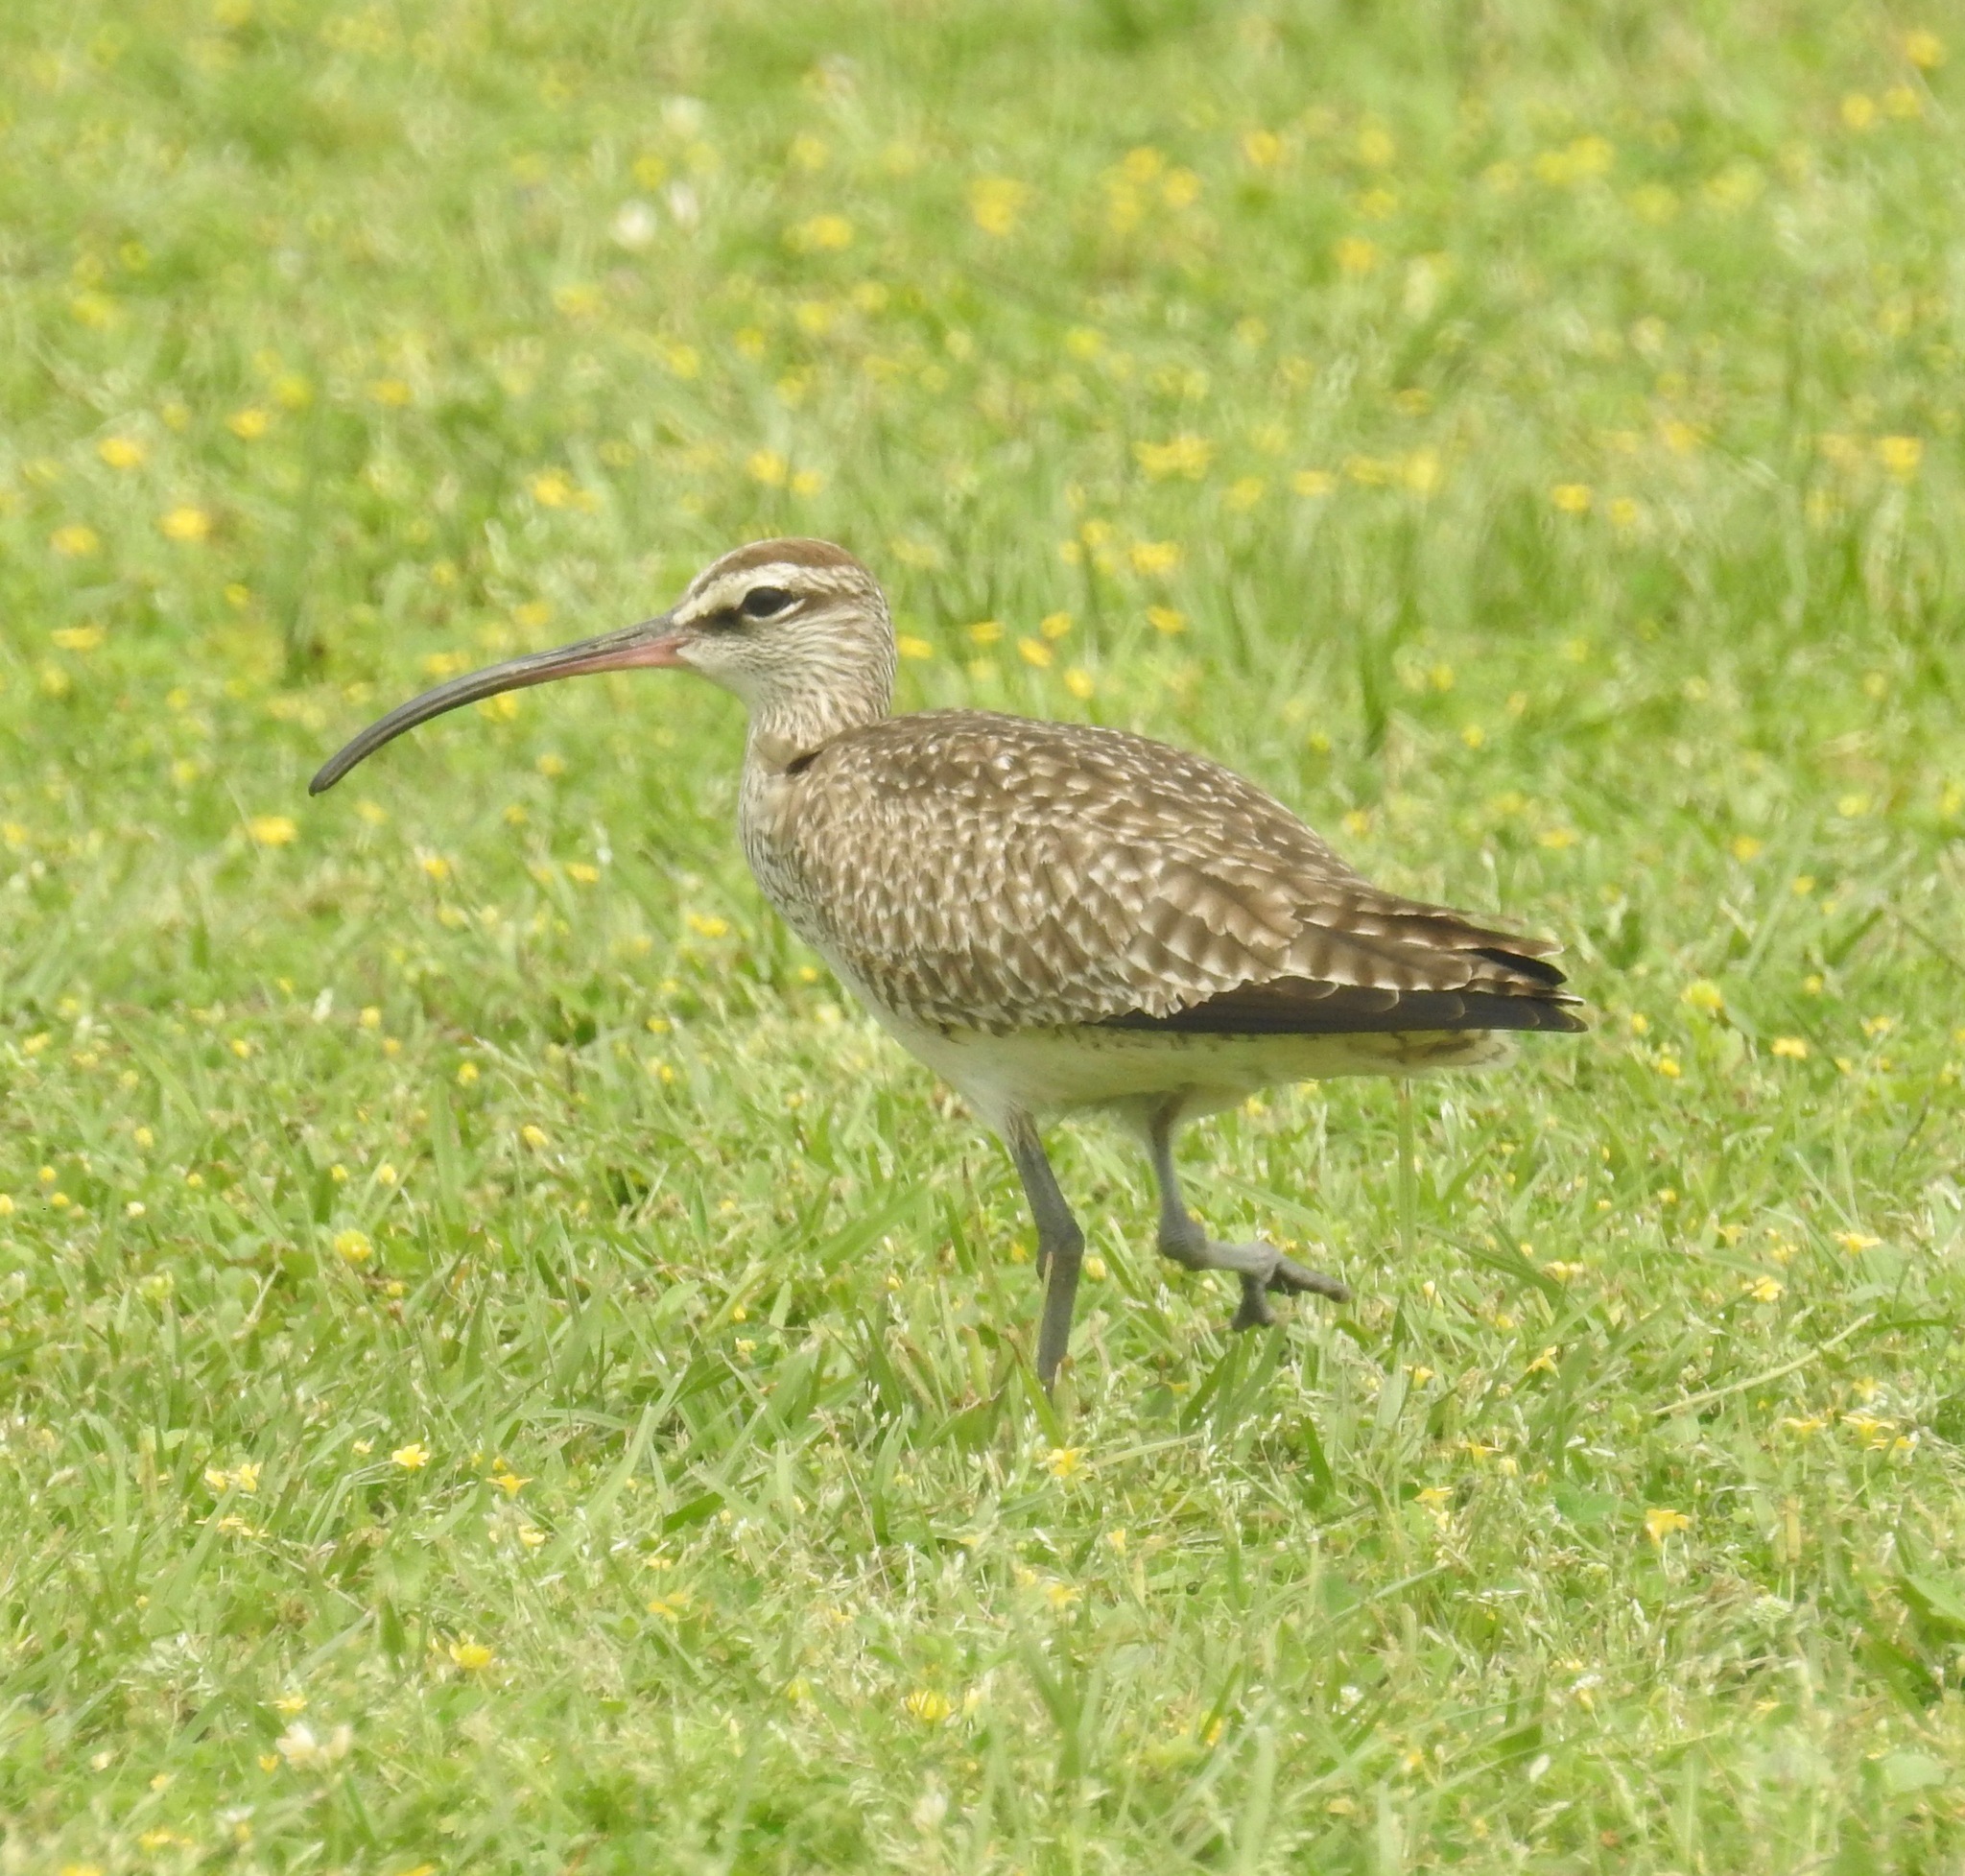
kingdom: Animalia
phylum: Chordata
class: Aves
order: Charadriiformes
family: Scolopacidae
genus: Numenius
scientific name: Numenius phaeopus
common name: Whimbrel
